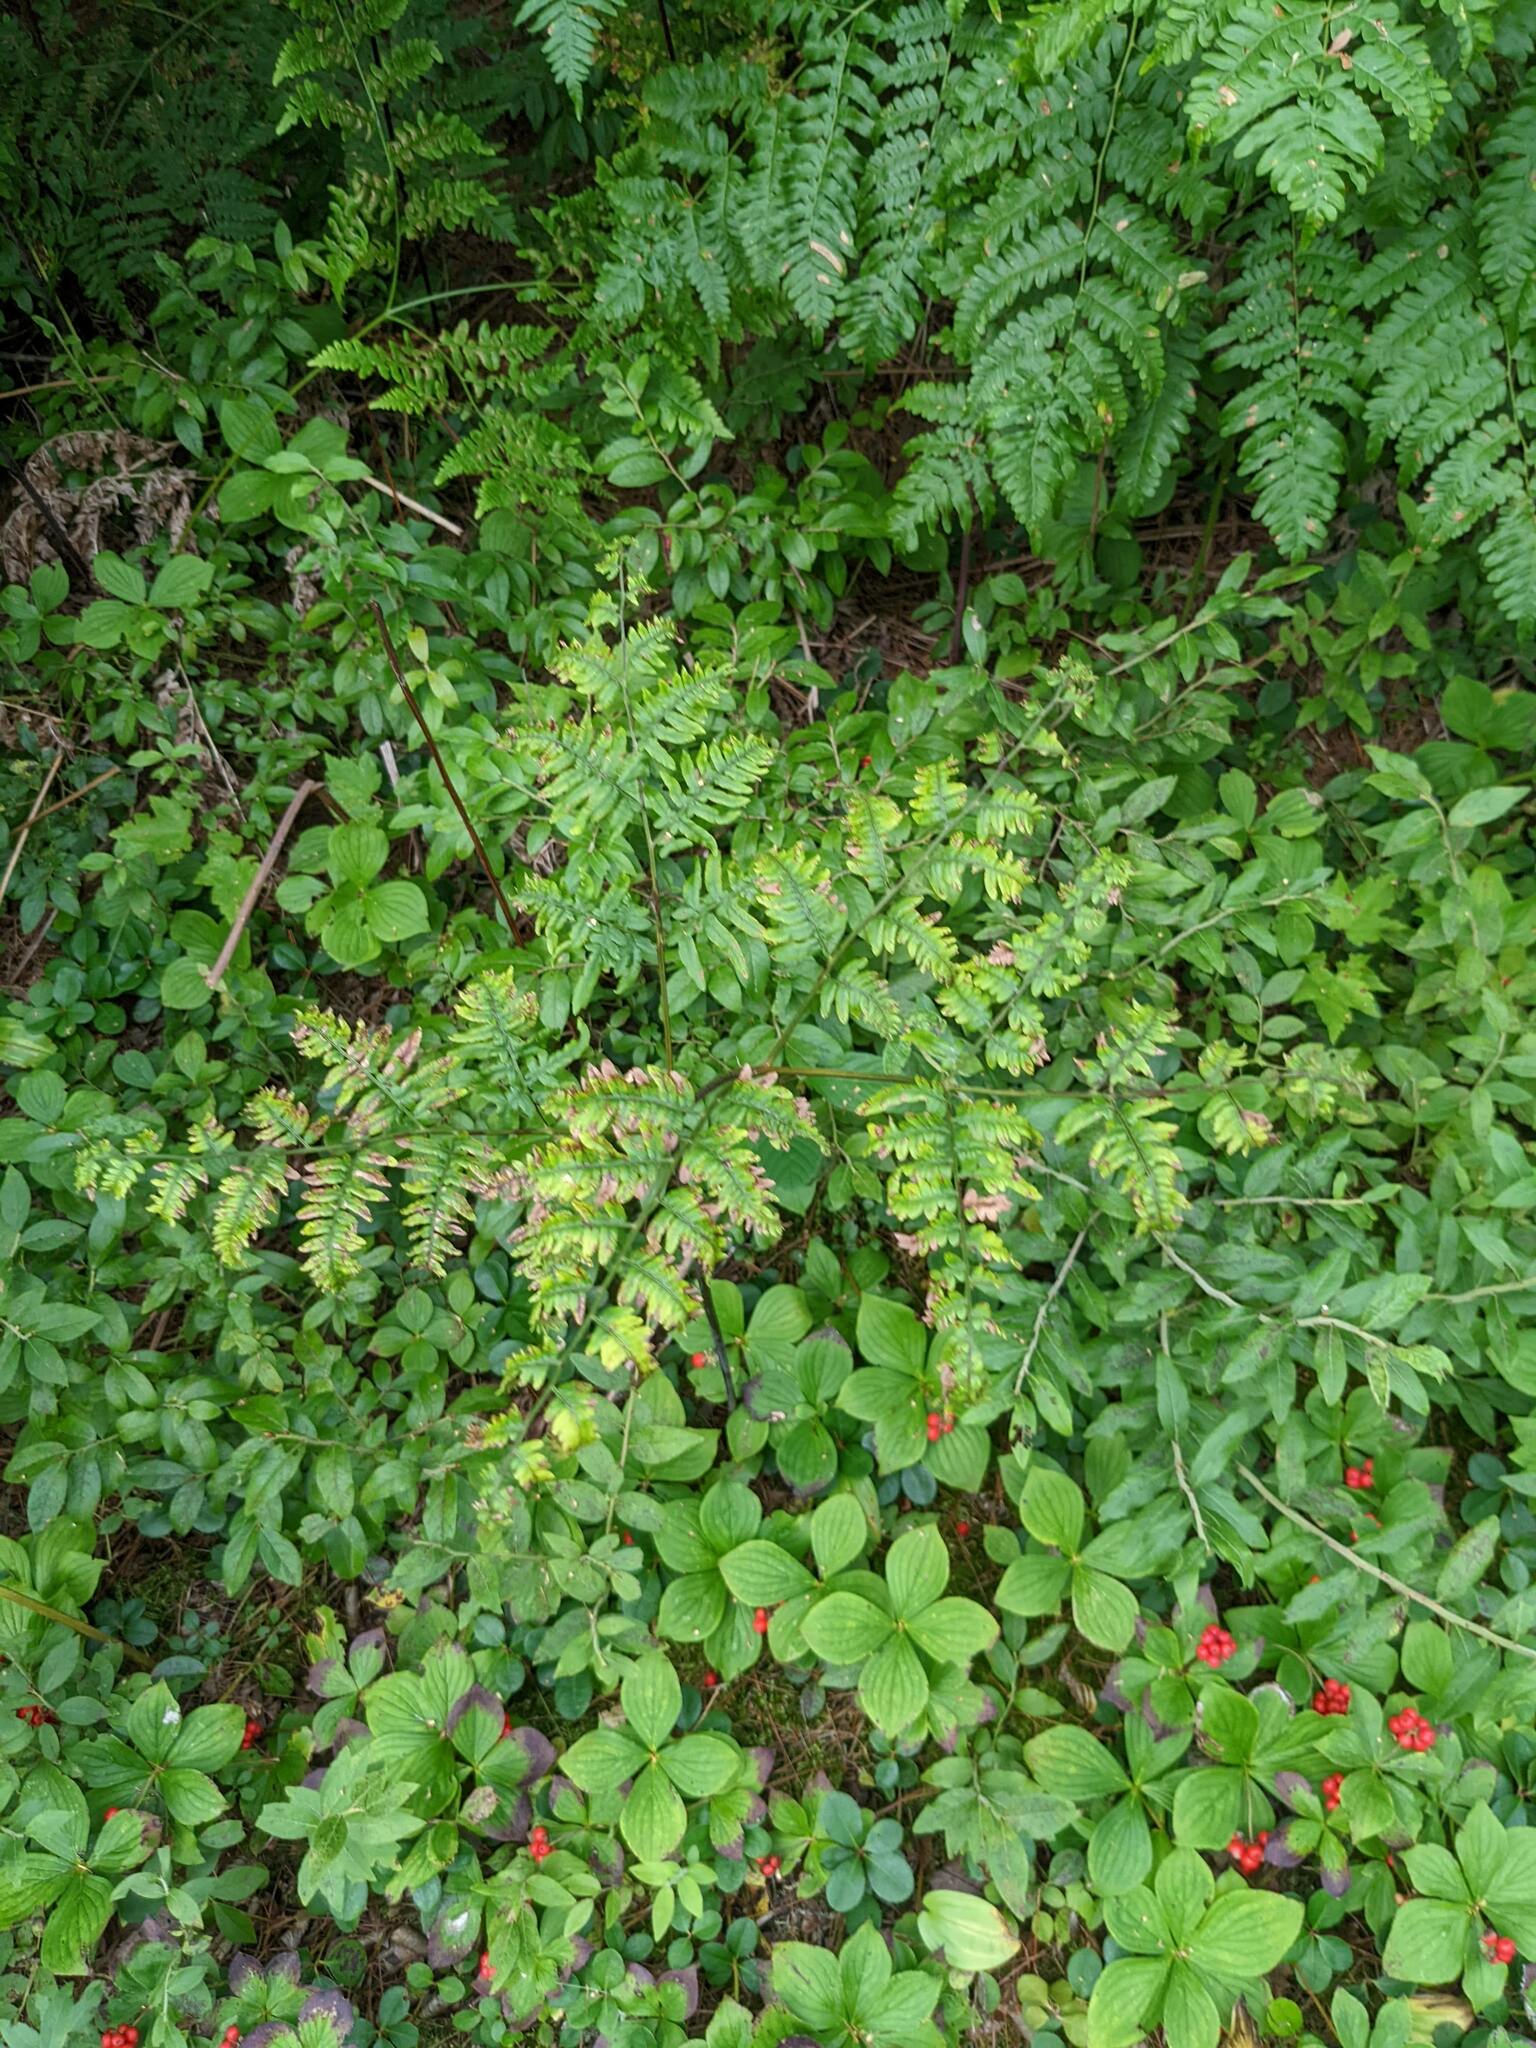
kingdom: Plantae
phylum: Tracheophyta
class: Polypodiopsida
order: Polypodiales
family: Dennstaedtiaceae
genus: Pteridium
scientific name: Pteridium aquilinum
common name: Bracken
